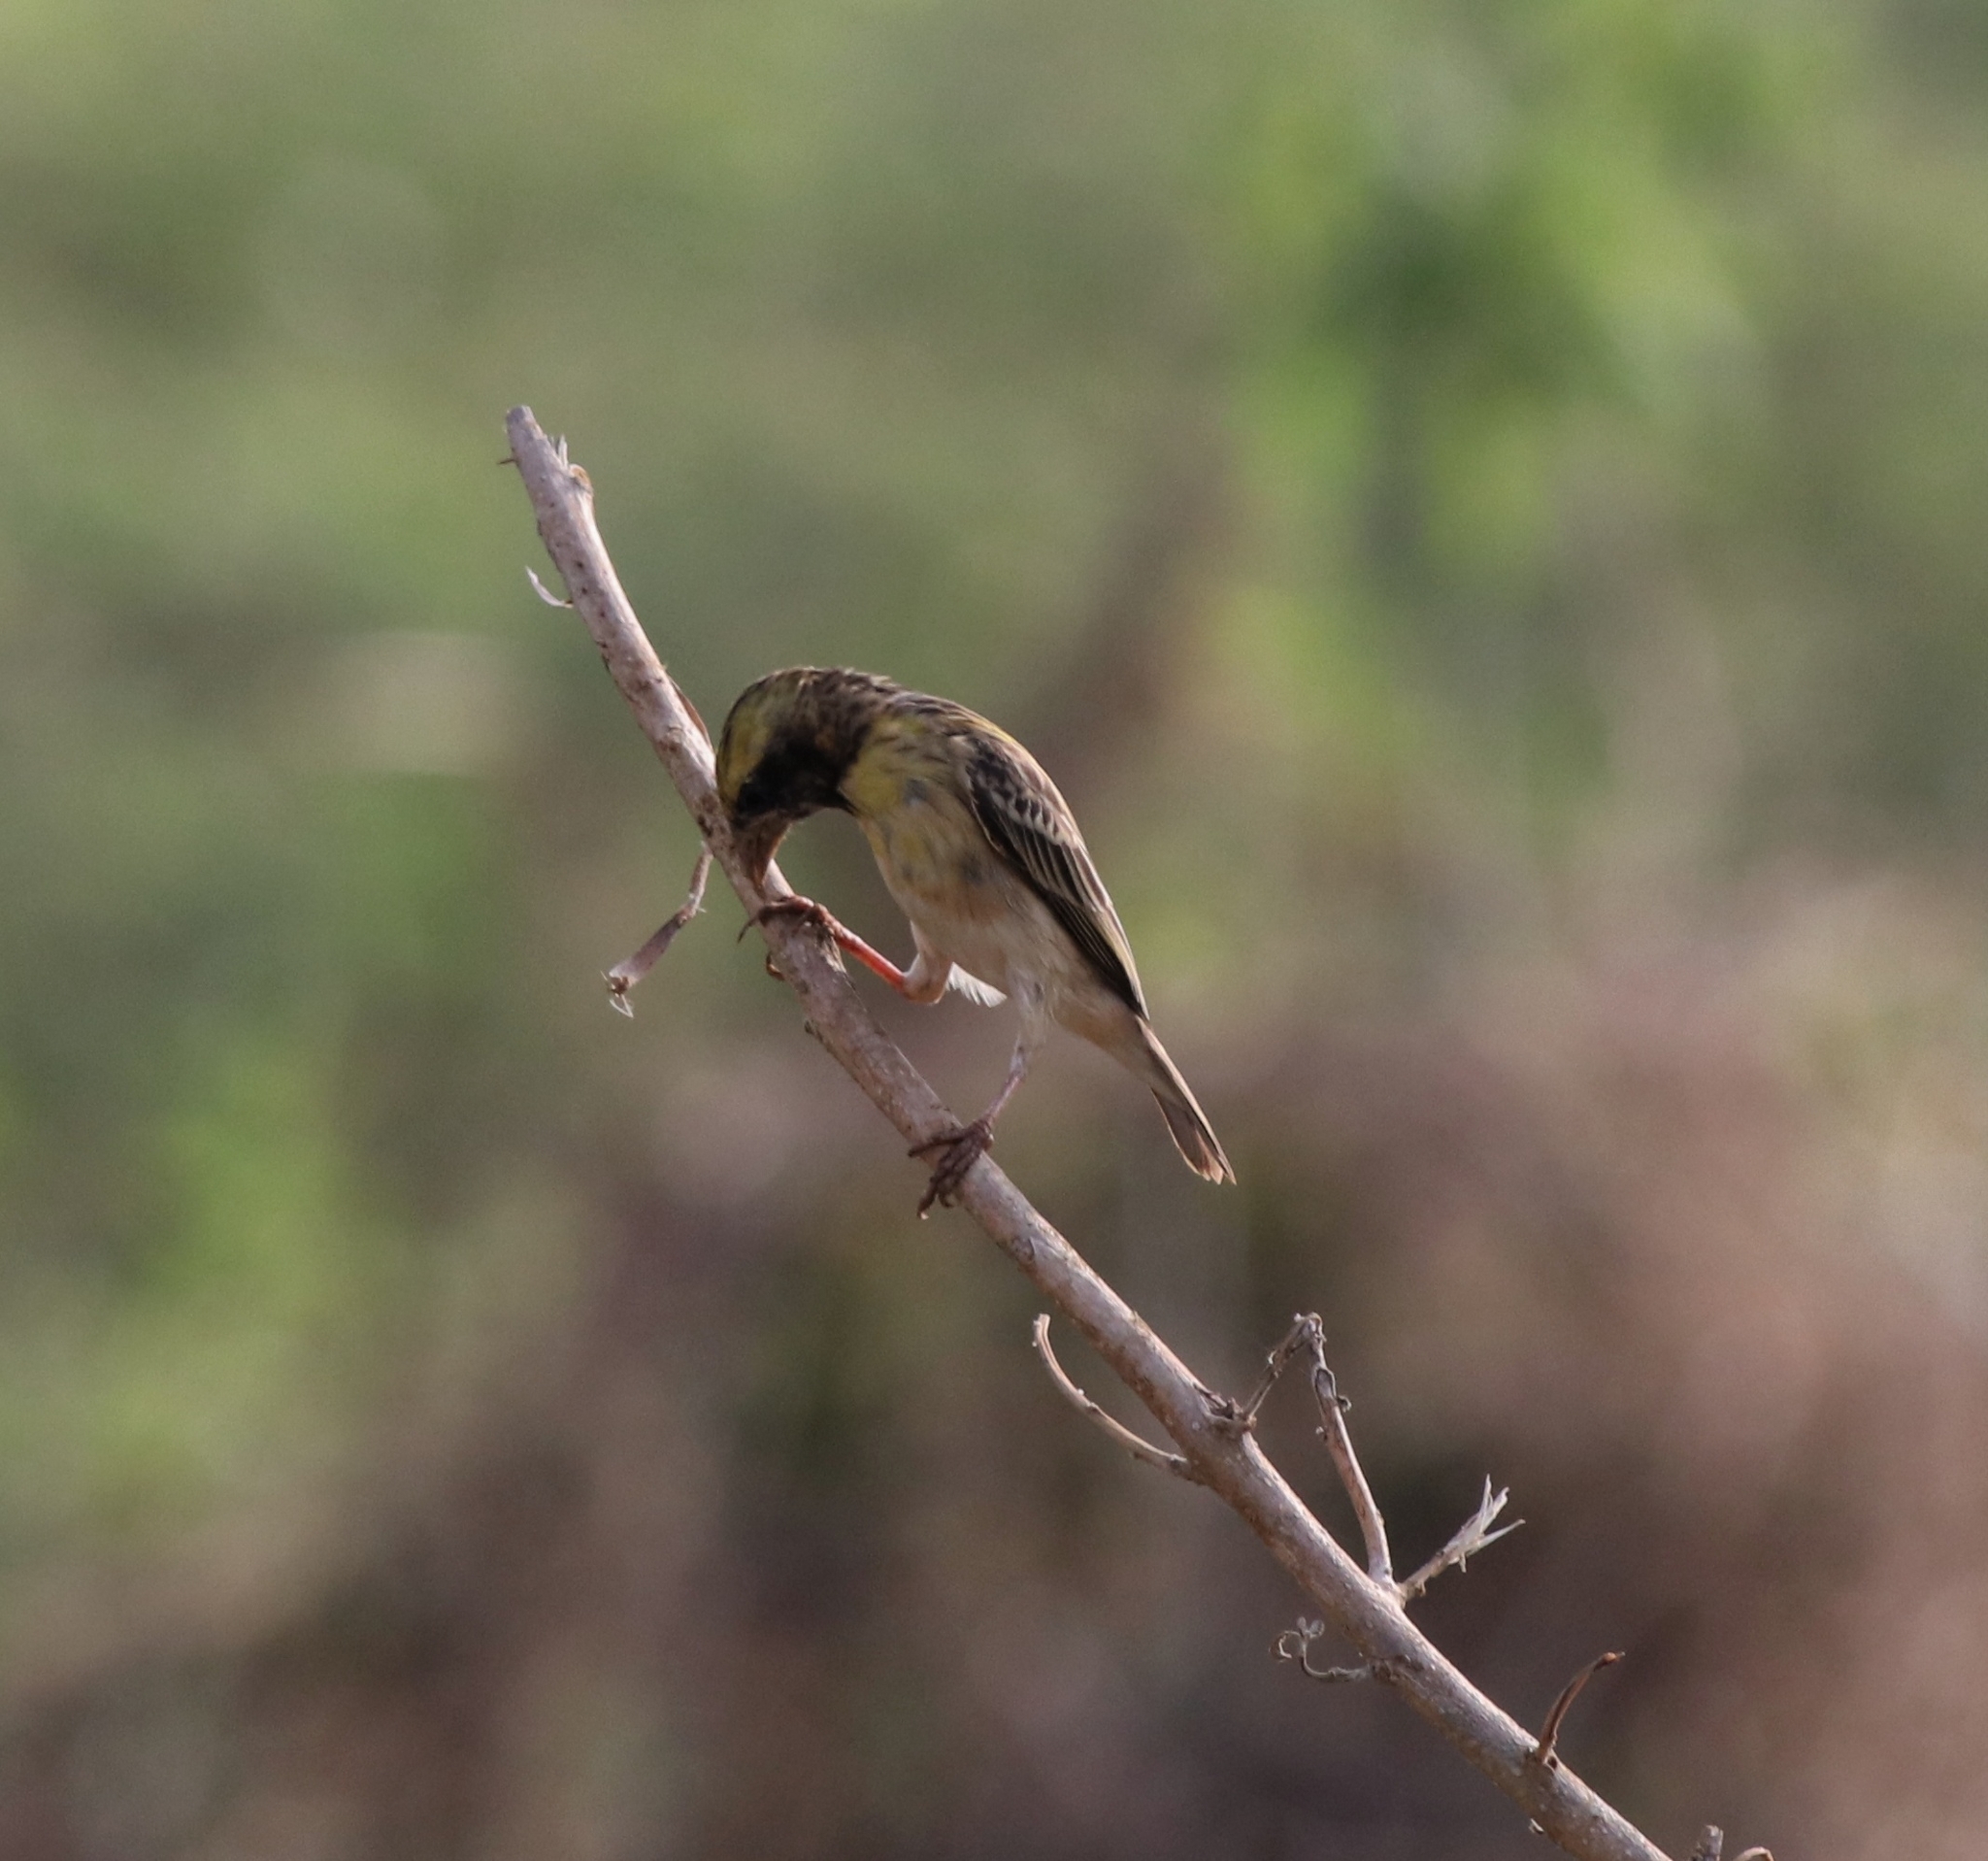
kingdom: Animalia
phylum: Chordata
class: Aves
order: Passeriformes
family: Ploceidae
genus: Ploceus
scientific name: Ploceus philippinus
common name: Baya weaver
